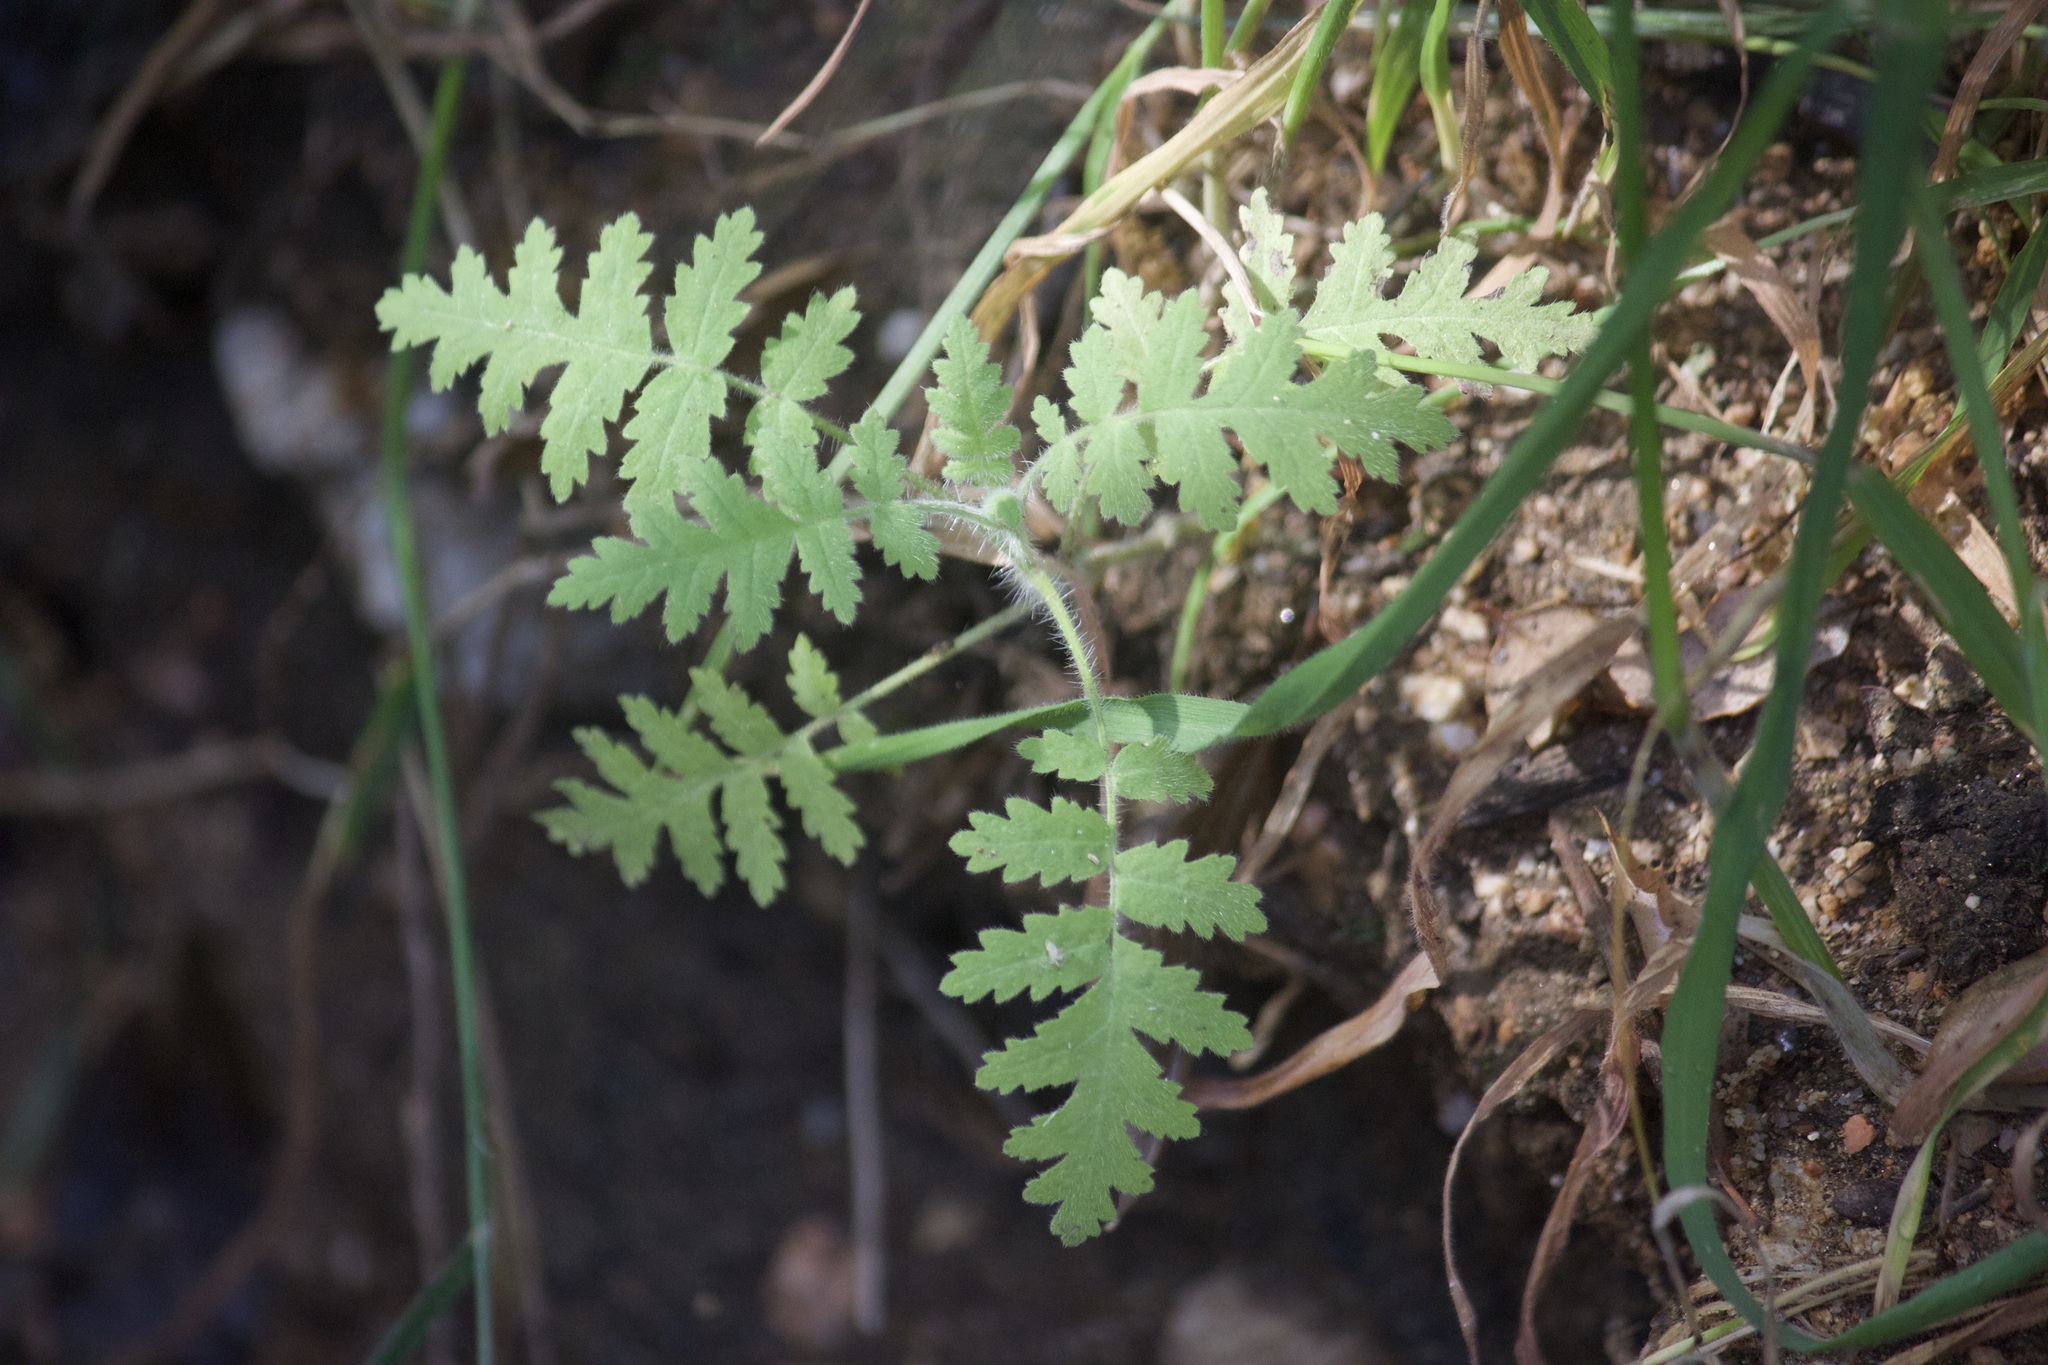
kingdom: Plantae
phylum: Tracheophyta
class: Magnoliopsida
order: Boraginales
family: Hydrophyllaceae
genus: Phacelia
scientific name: Phacelia
